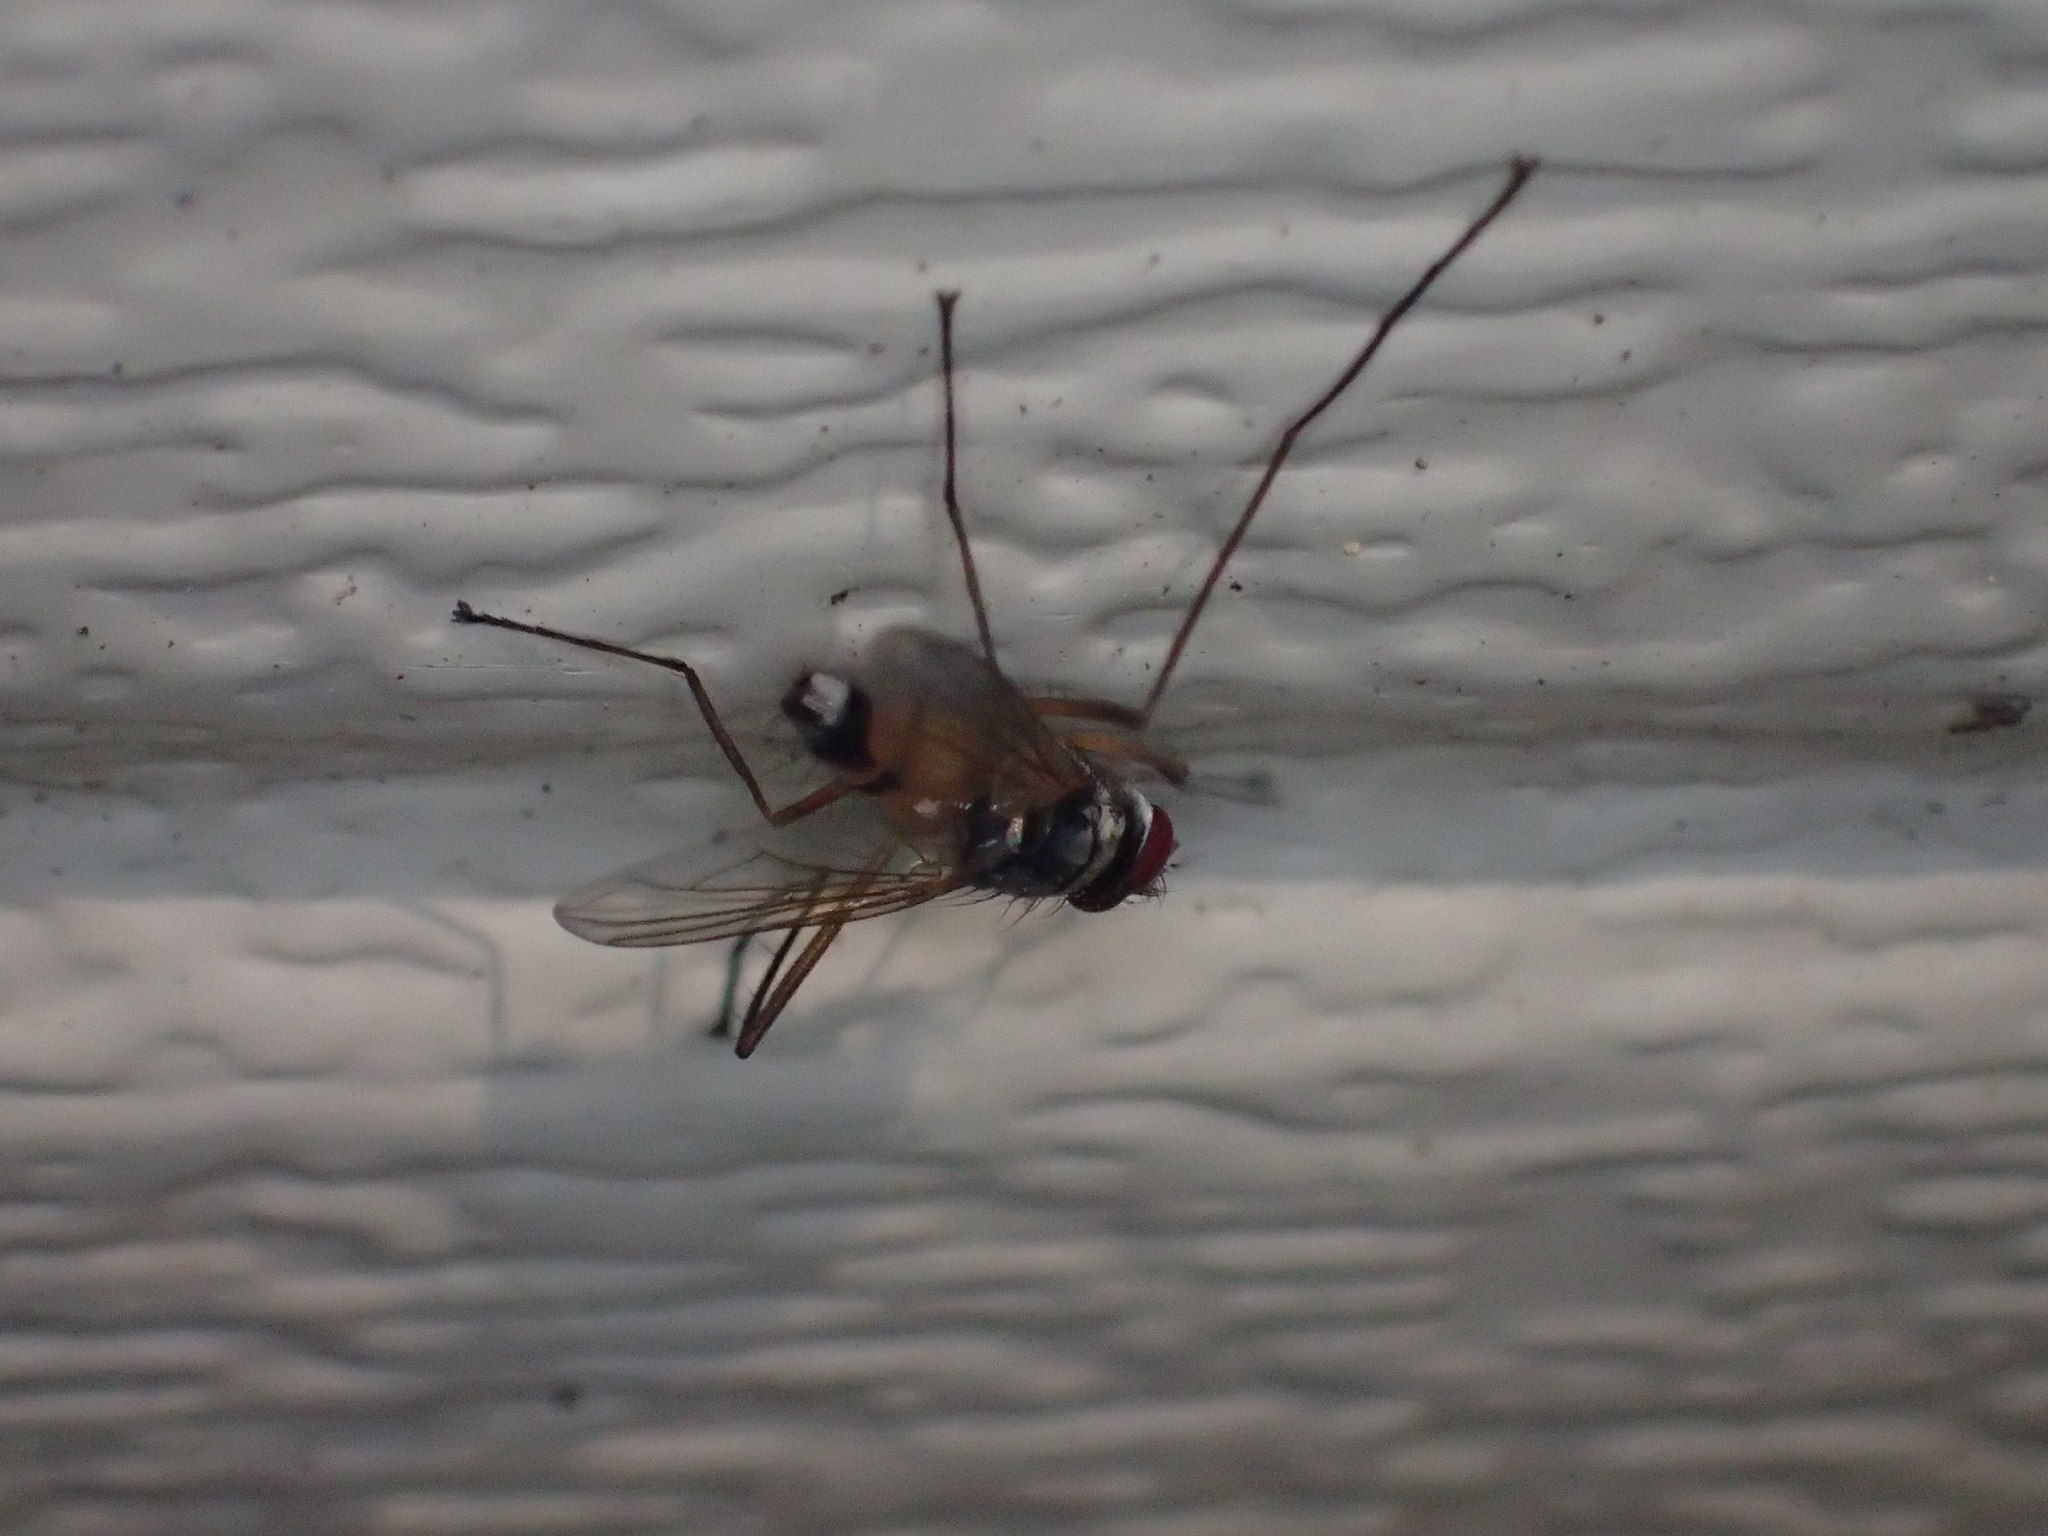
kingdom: Animalia
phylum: Arthropoda
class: Insecta
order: Diptera
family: Tachinidae
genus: Cholomyia
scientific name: Cholomyia inaequipes
